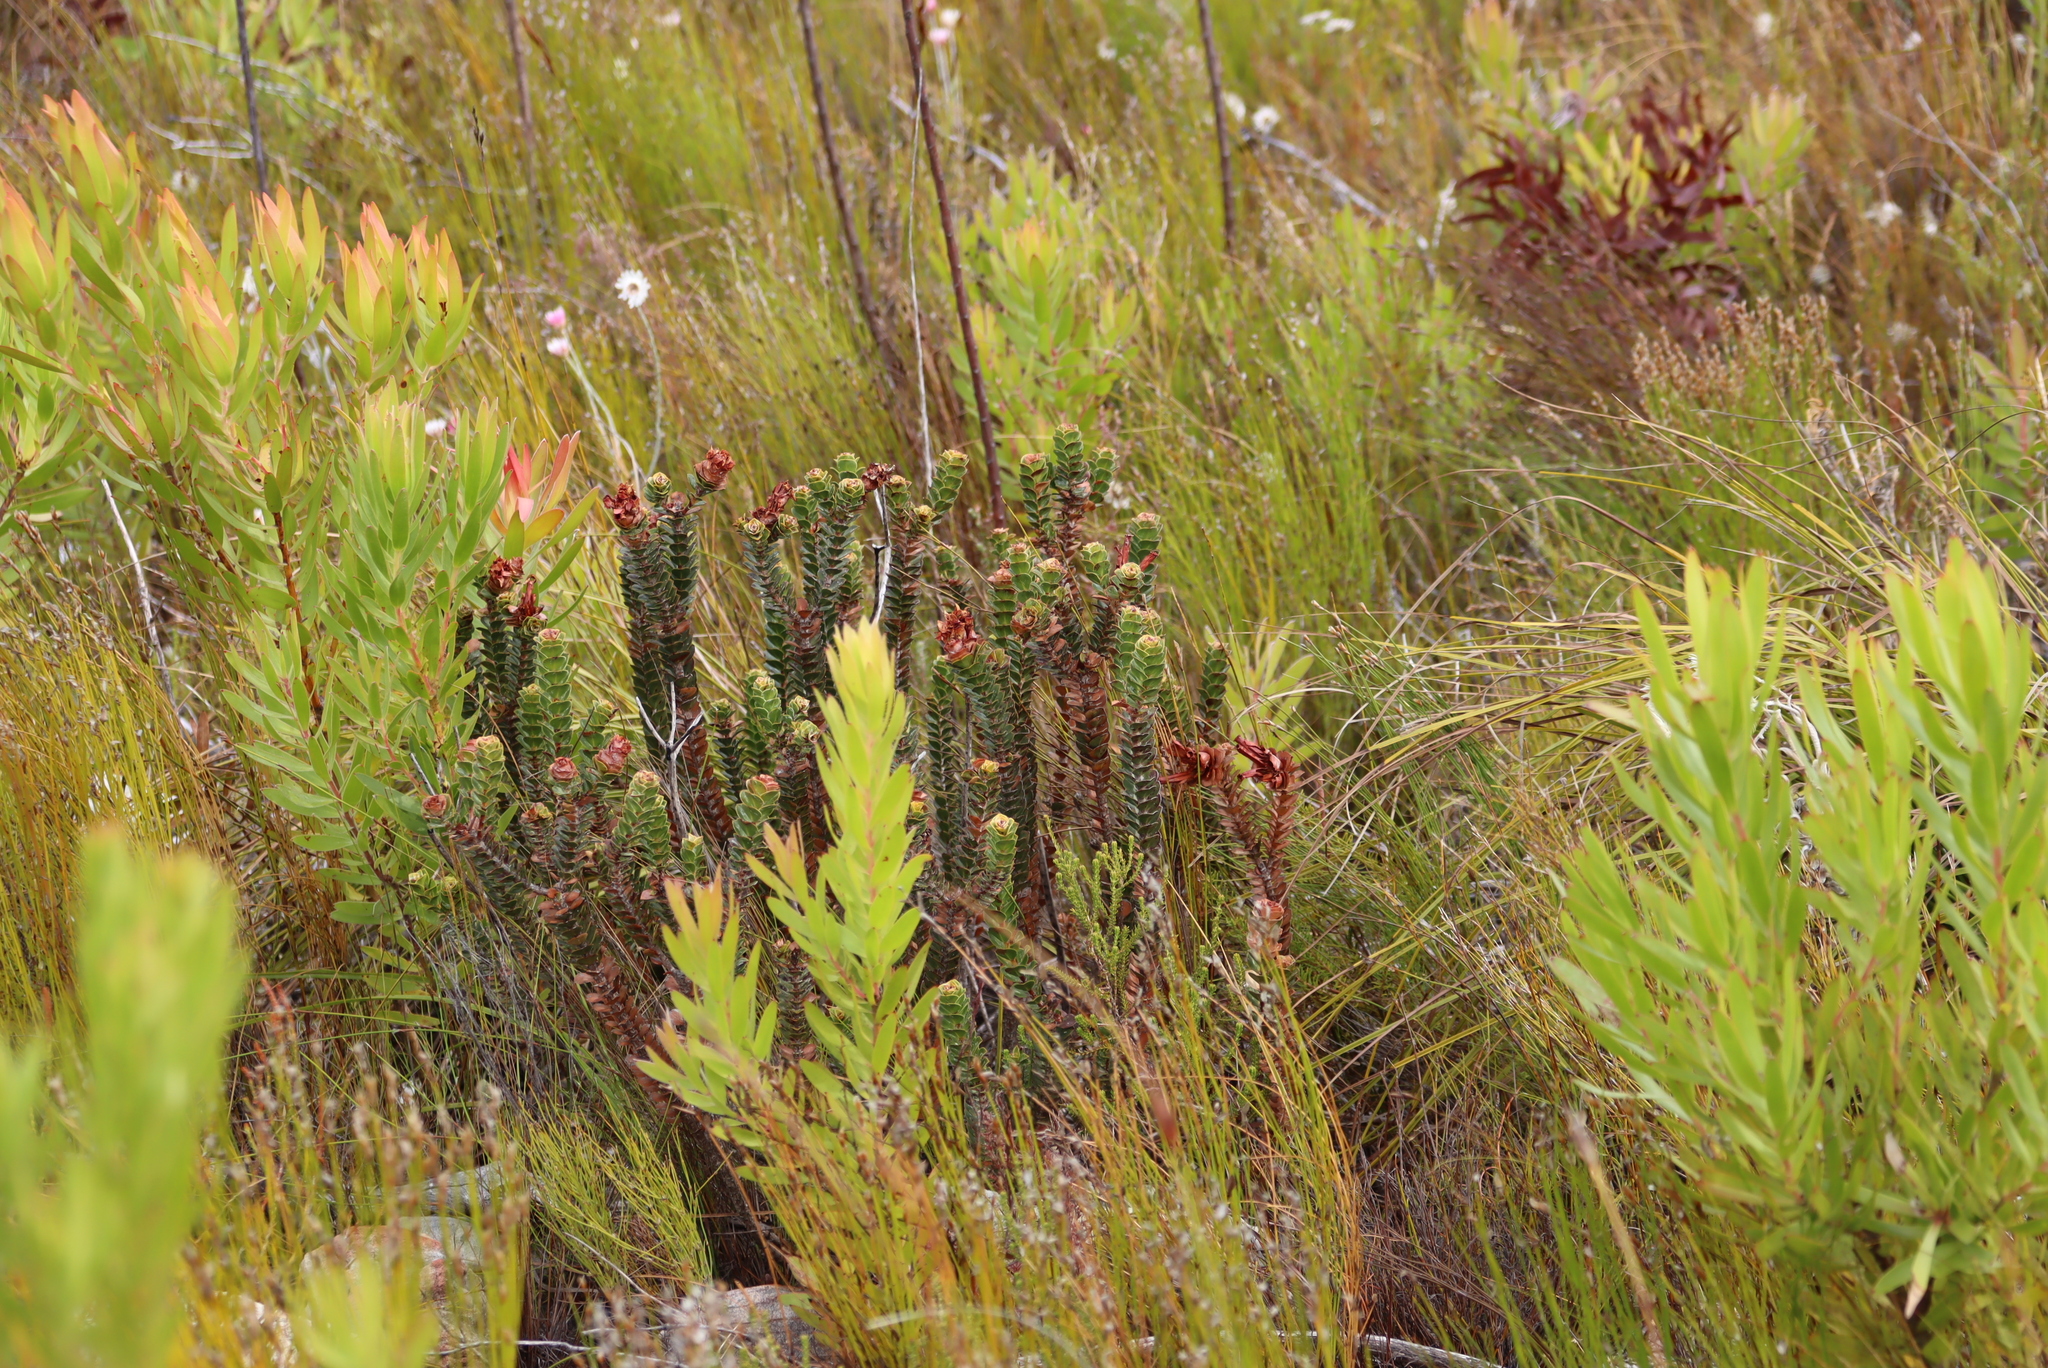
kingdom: Plantae
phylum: Tracheophyta
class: Magnoliopsida
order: Myrtales
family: Penaeaceae
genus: Saltera
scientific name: Saltera sarcocolla
